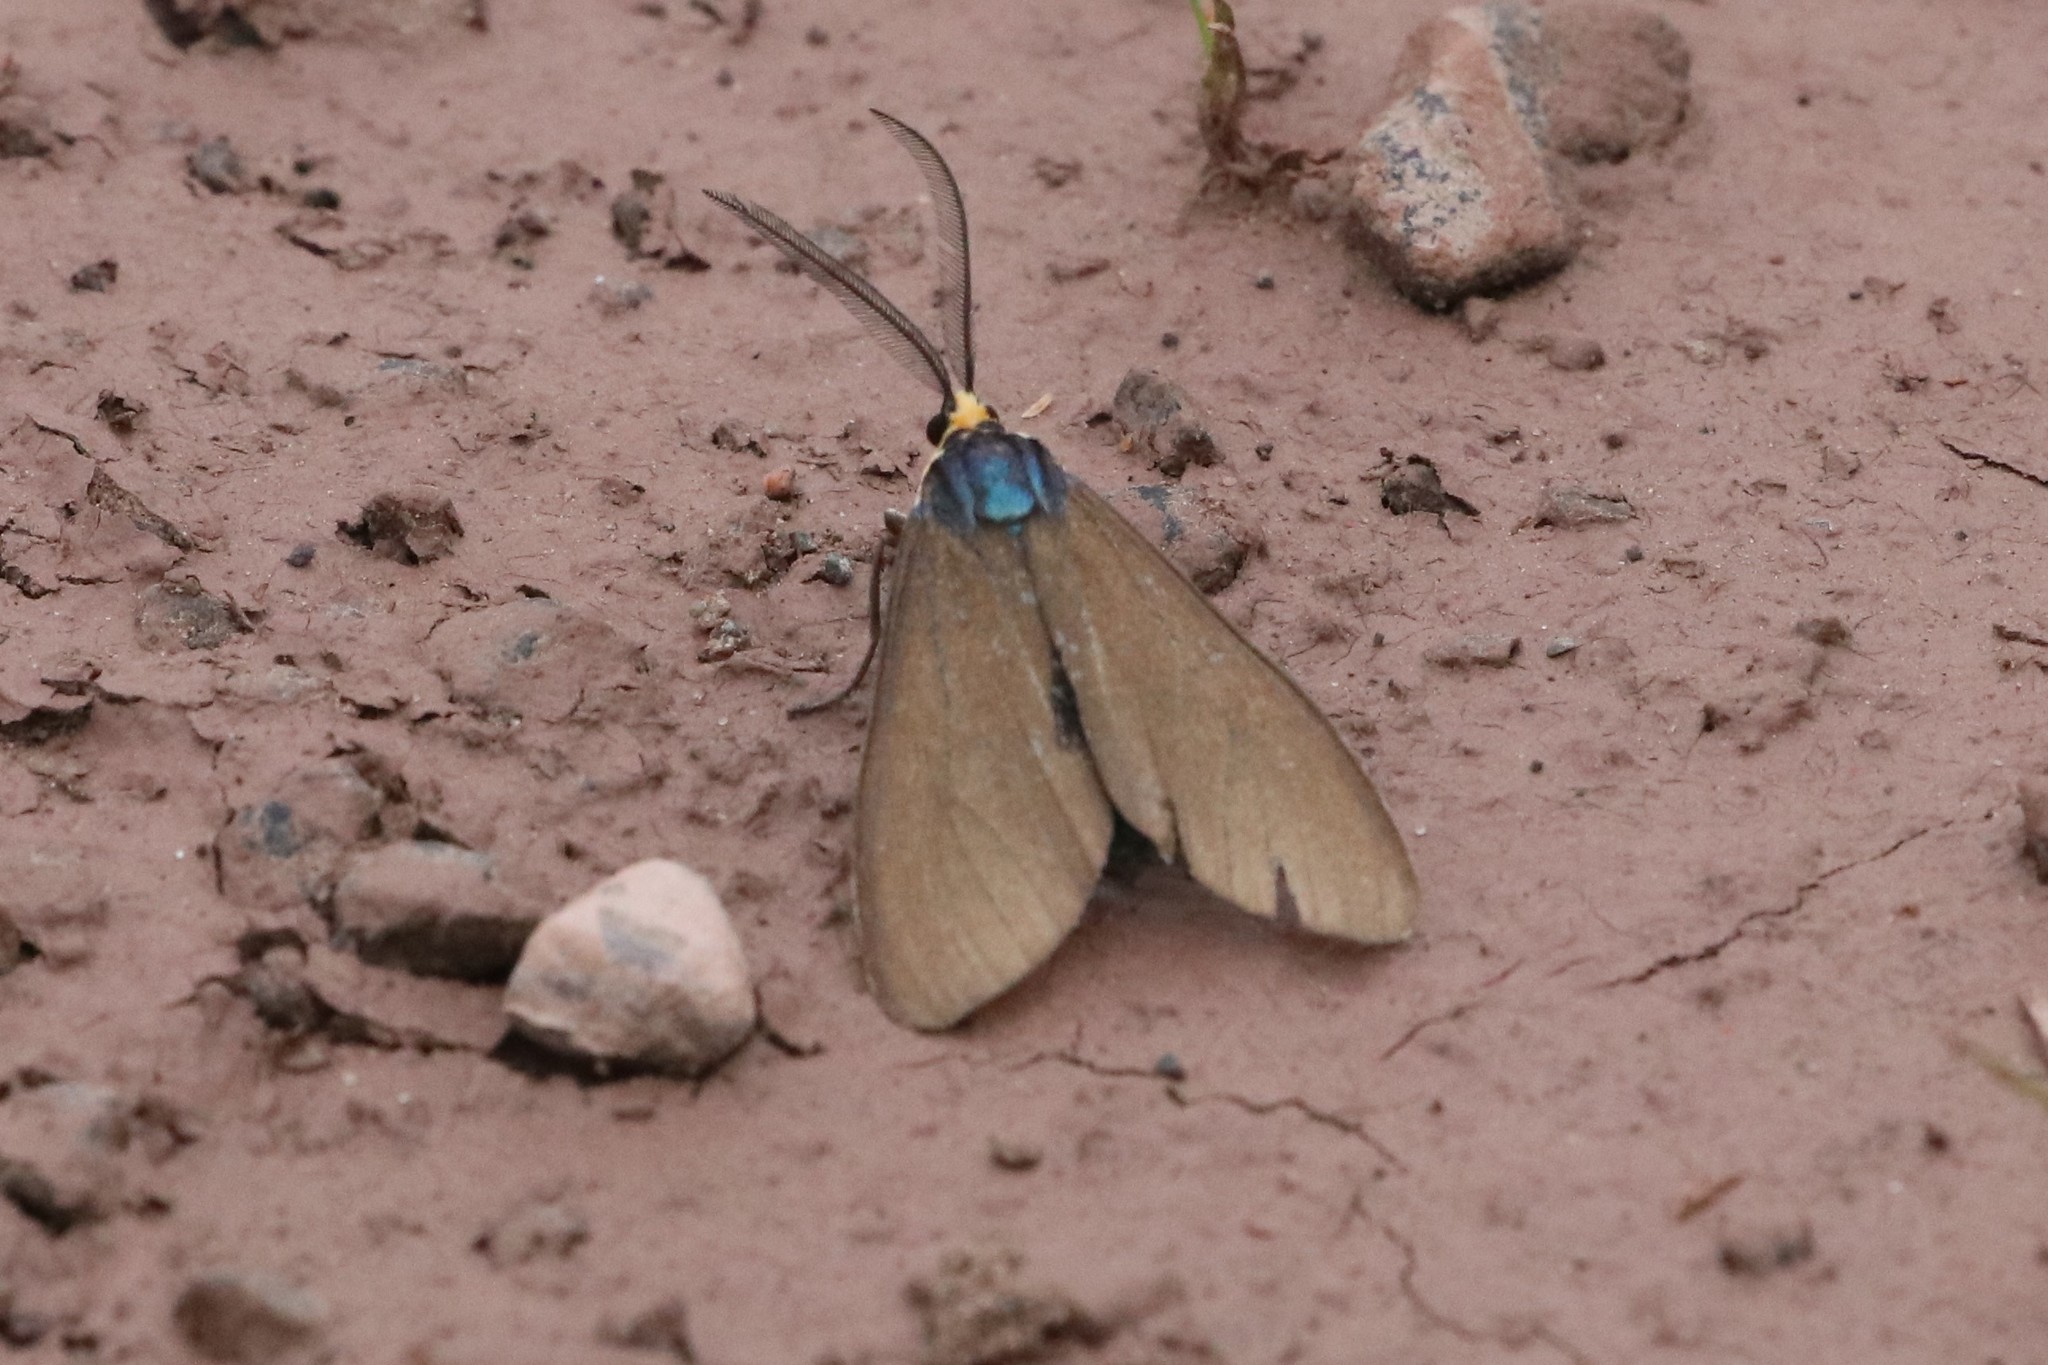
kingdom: Animalia
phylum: Arthropoda
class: Insecta
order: Lepidoptera
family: Erebidae
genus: Ctenucha
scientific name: Ctenucha virginica
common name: Virginia ctenucha moth
